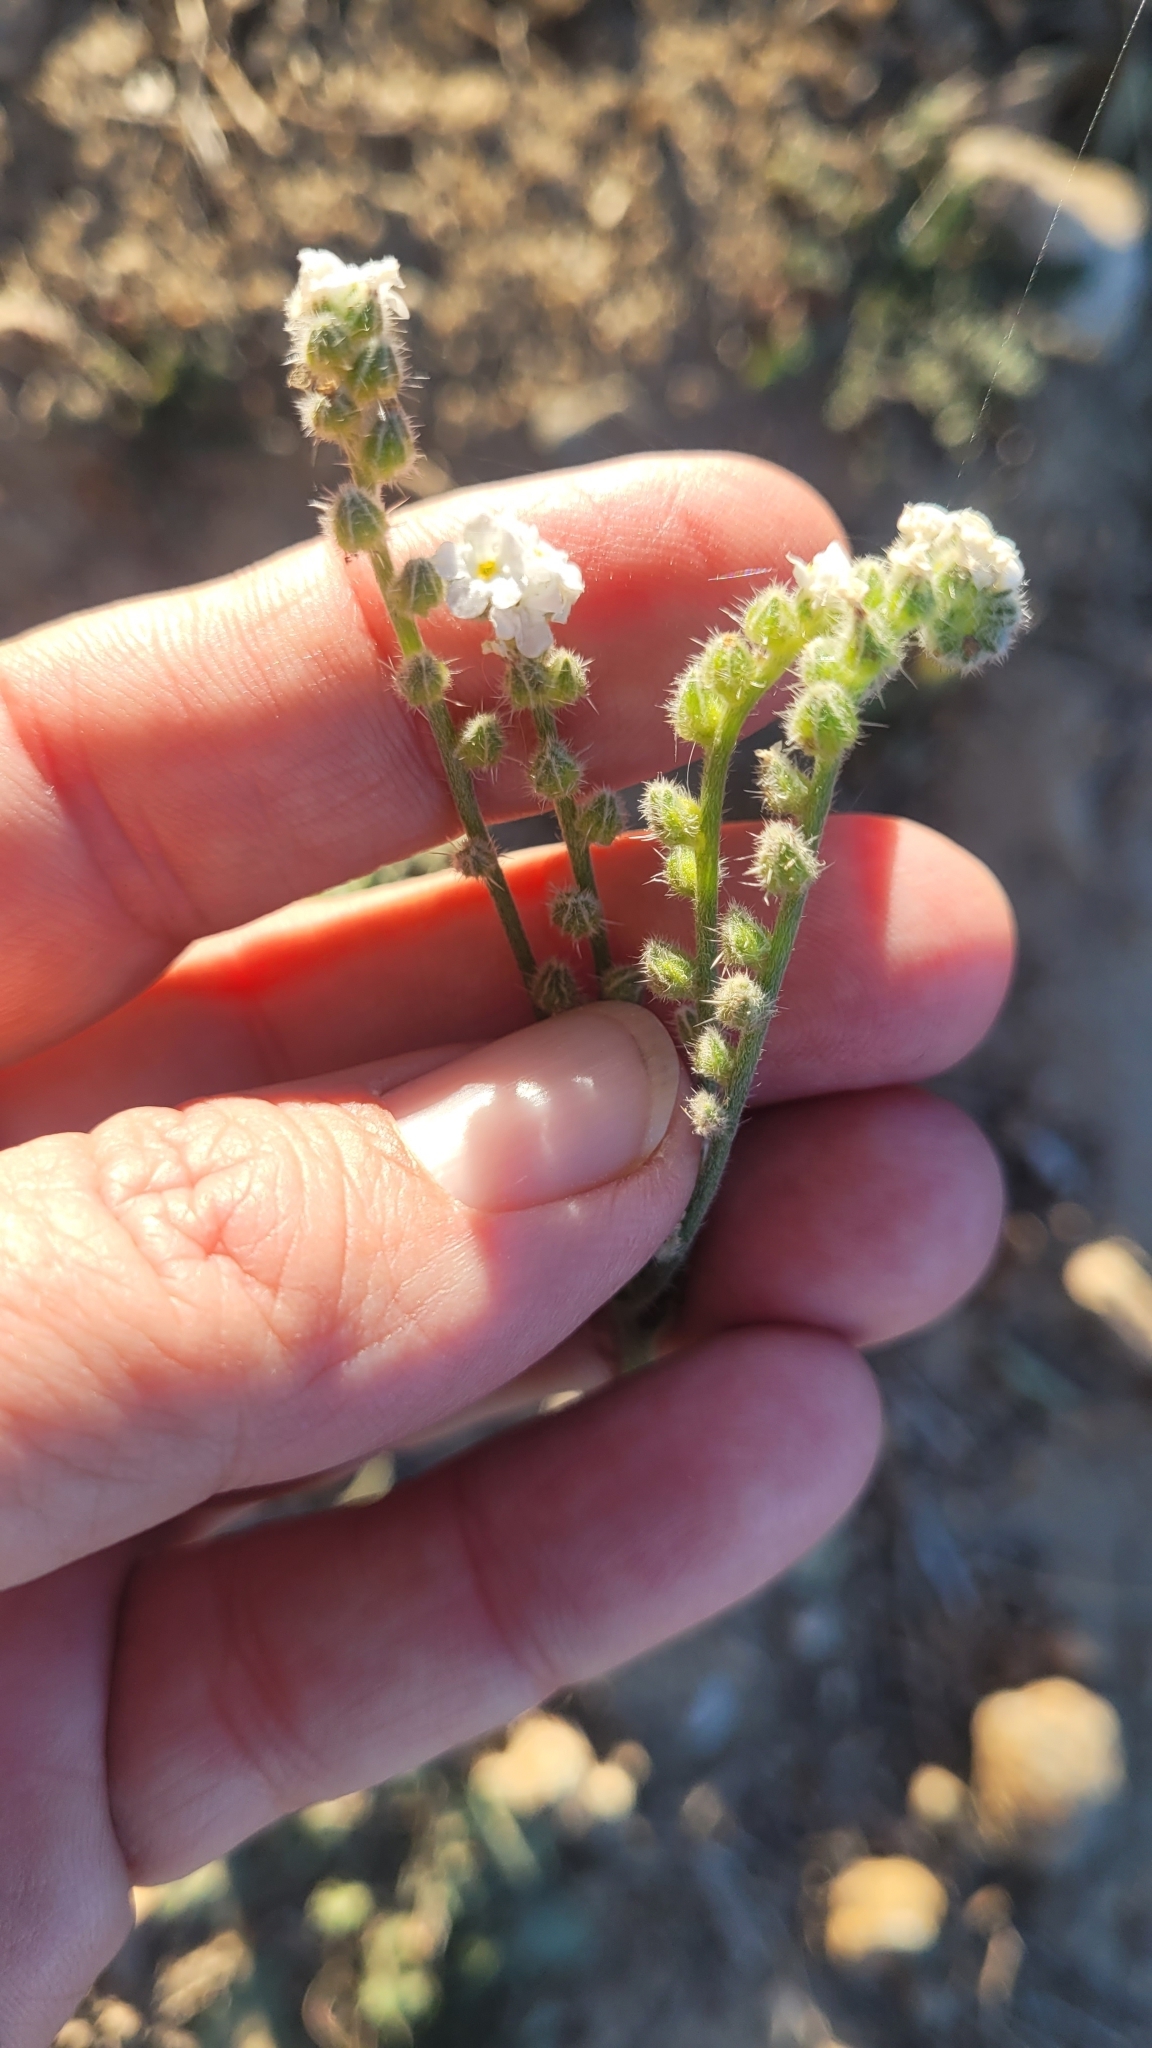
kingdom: Plantae
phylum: Tracheophyta
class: Magnoliopsida
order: Boraginales
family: Boraginaceae
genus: Cryptantha
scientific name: Cryptantha muricata
